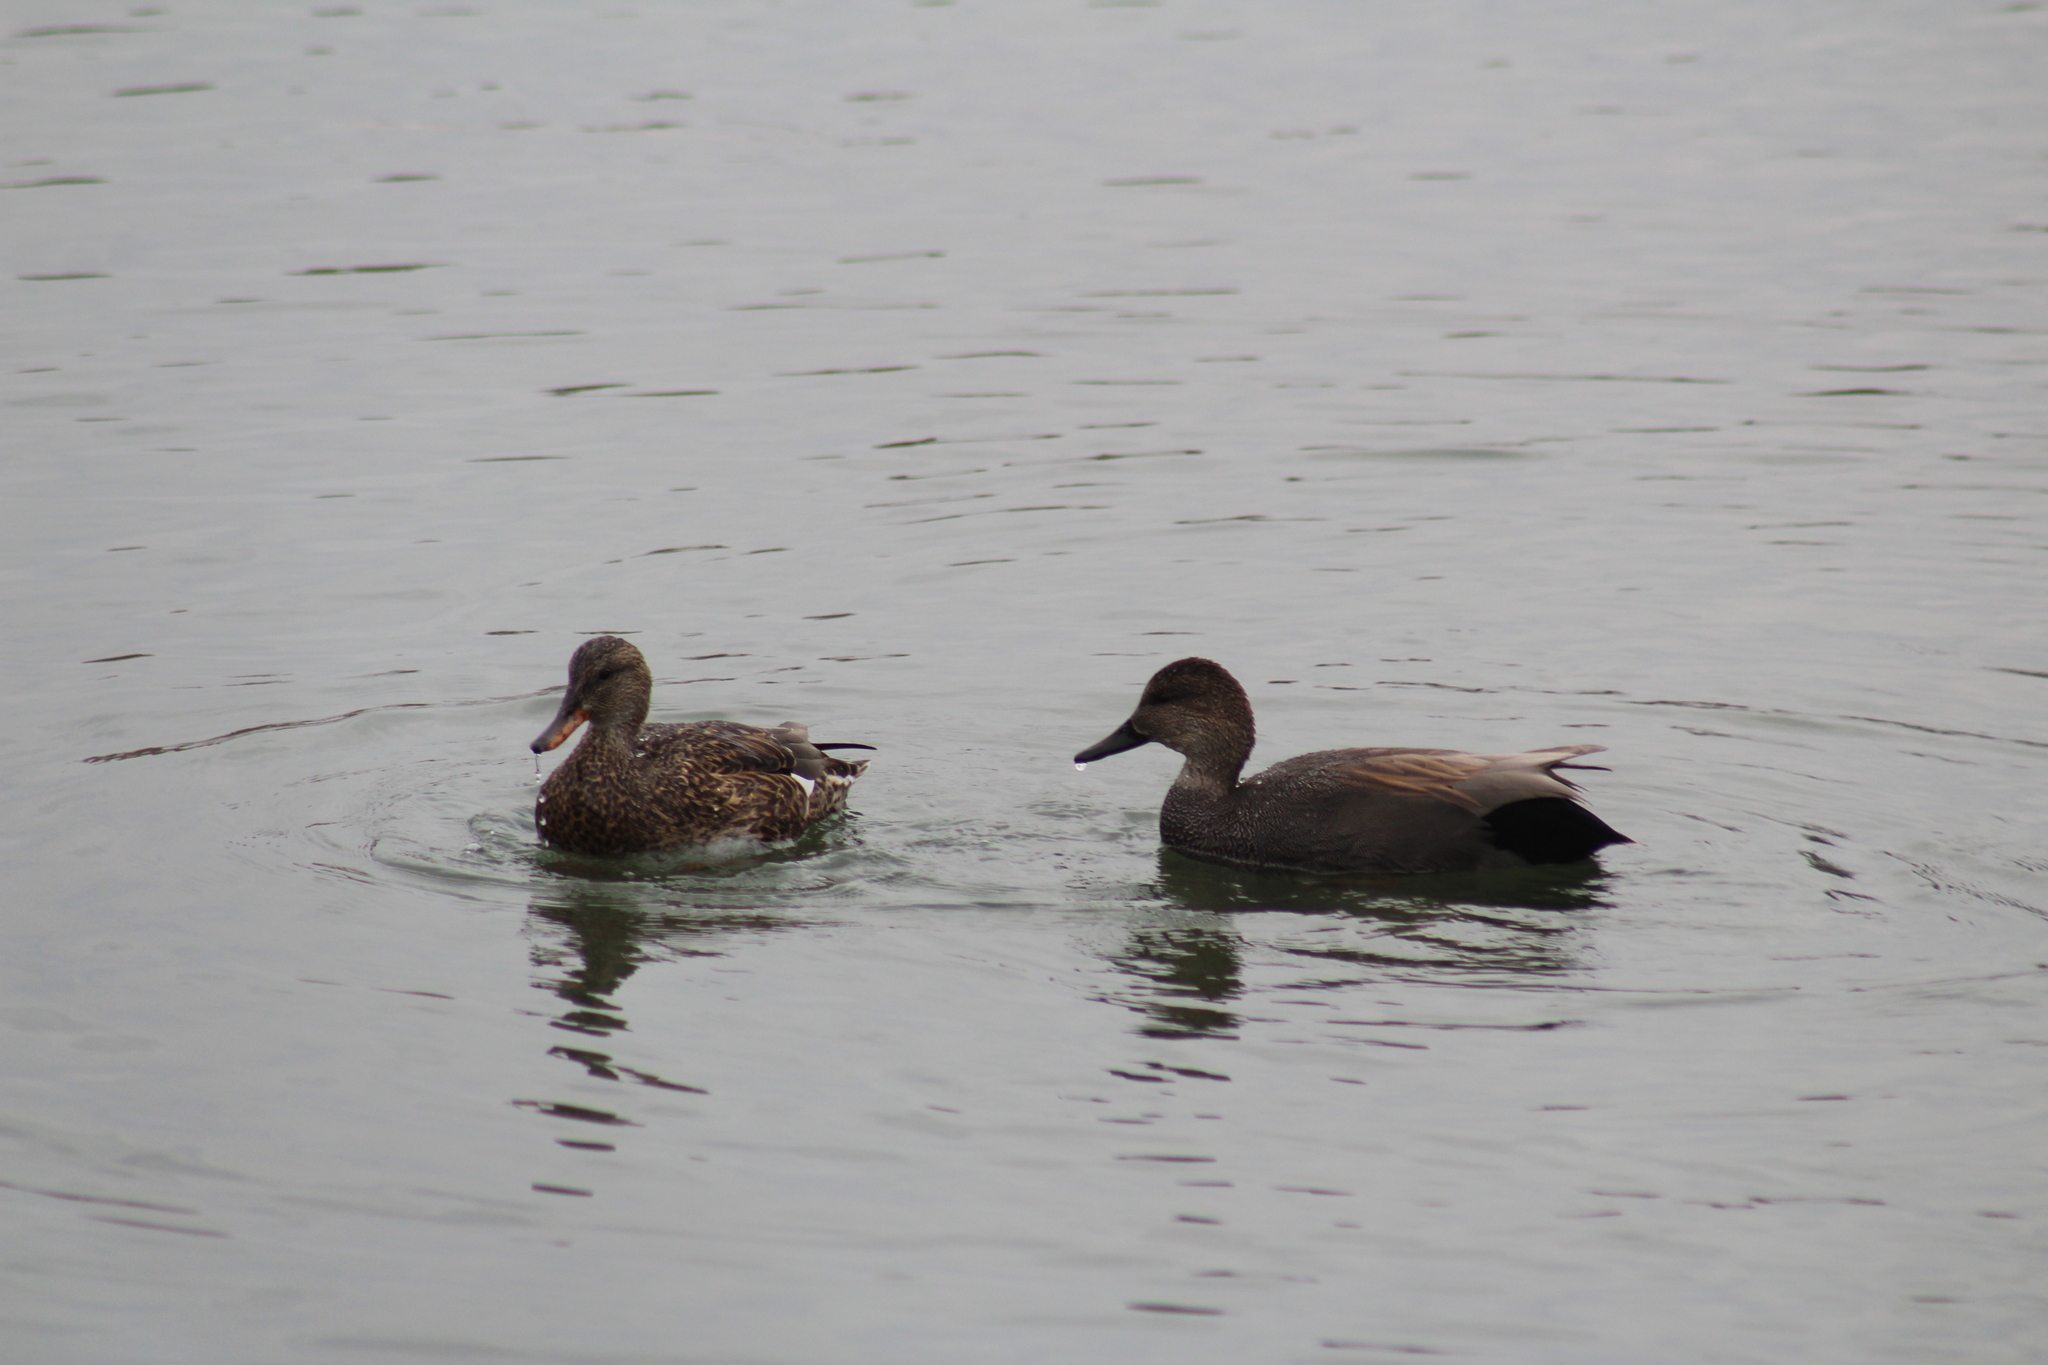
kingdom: Animalia
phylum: Chordata
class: Aves
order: Anseriformes
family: Anatidae
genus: Mareca
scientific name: Mareca strepera
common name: Gadwall
